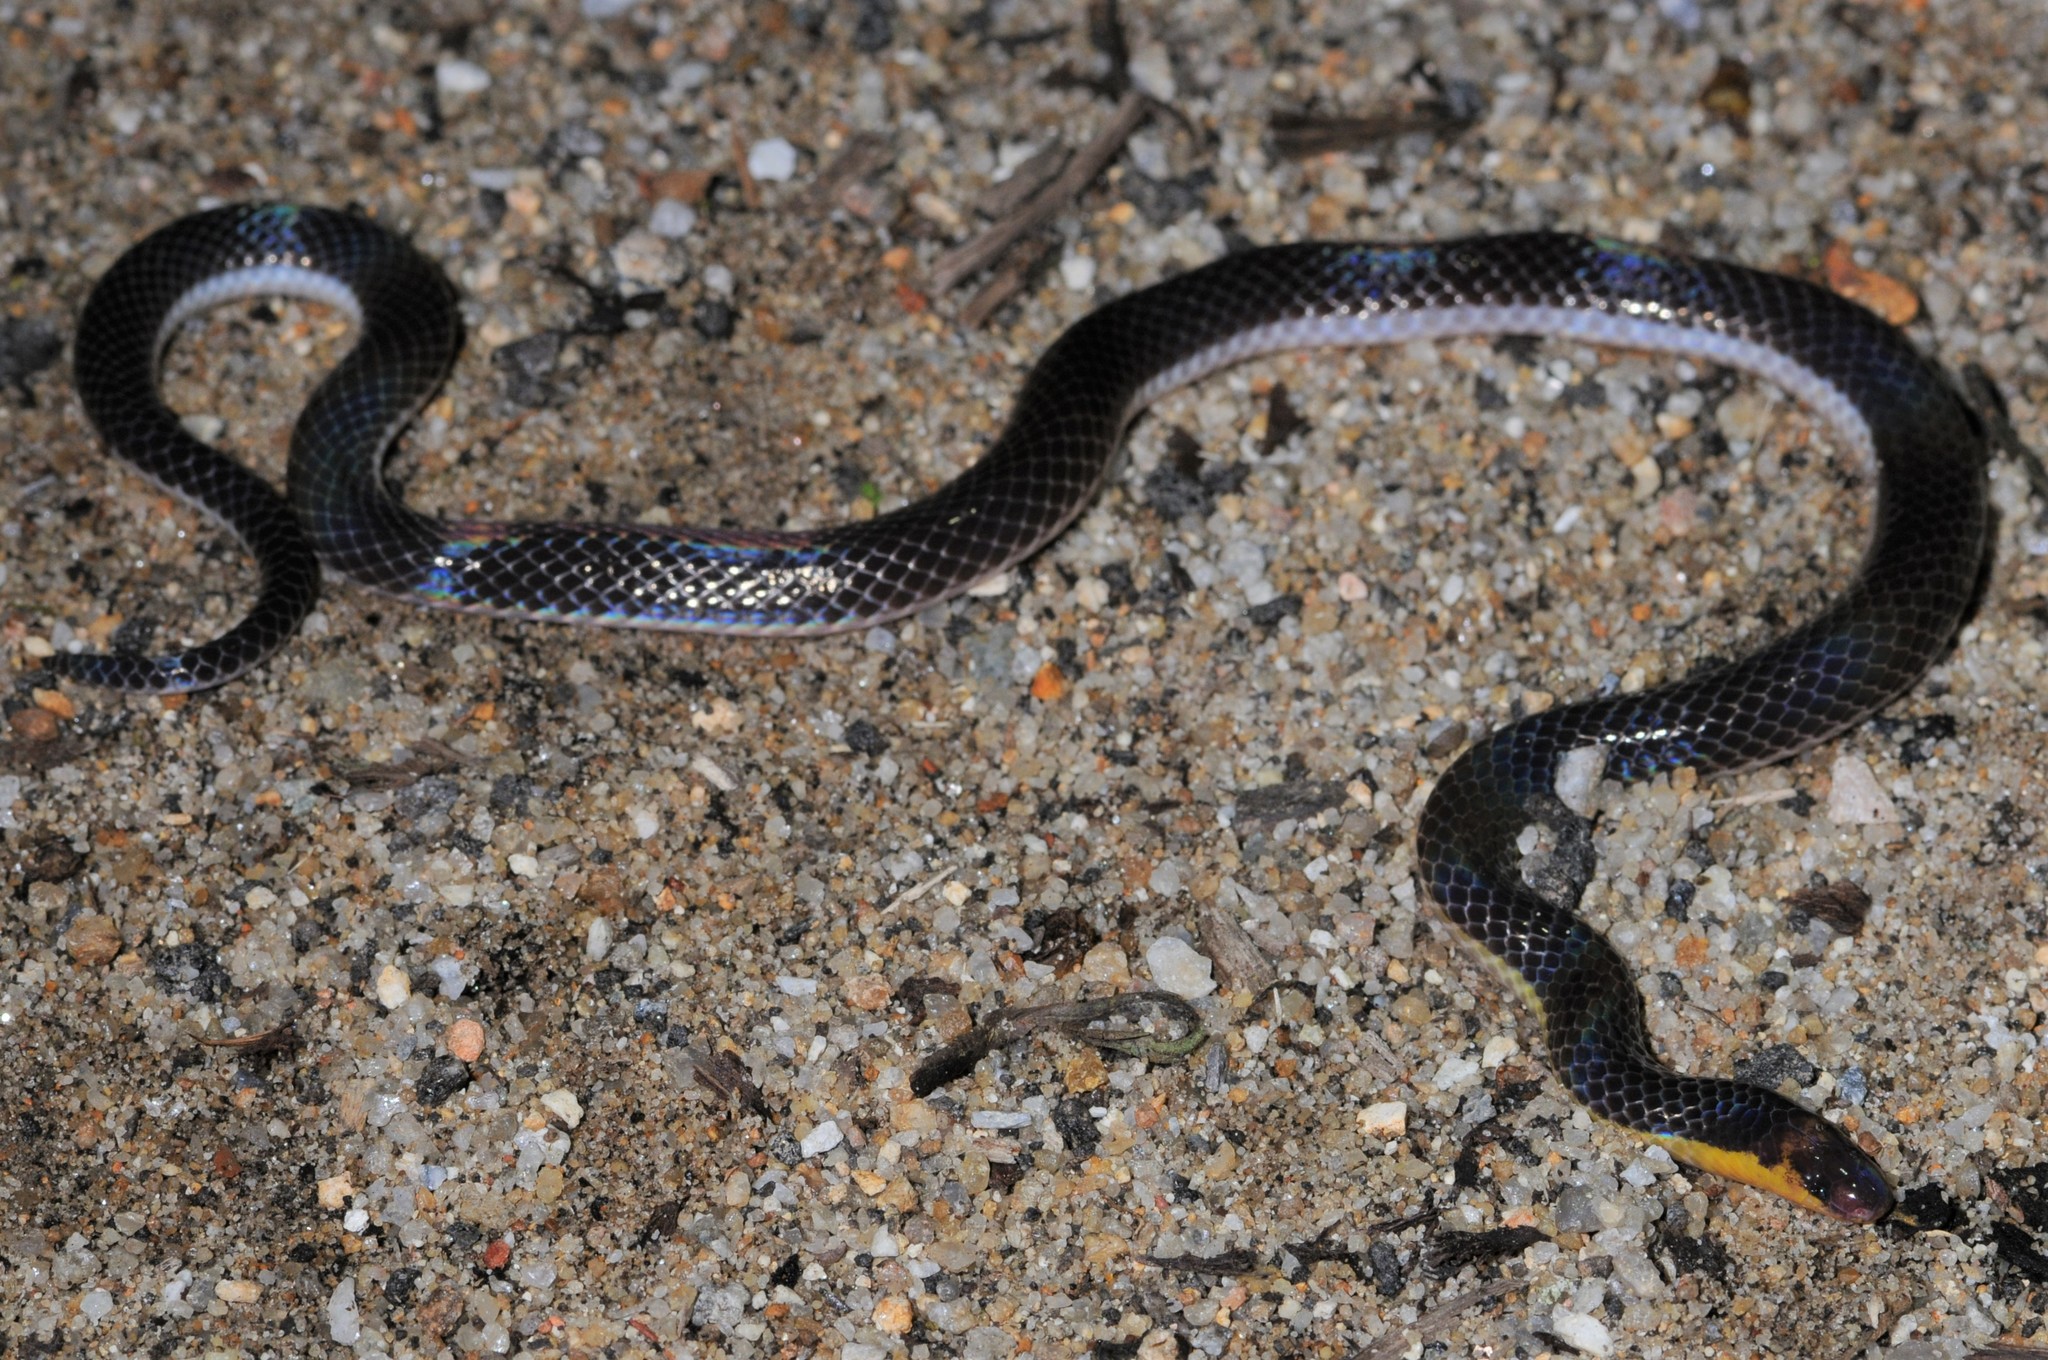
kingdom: Animalia
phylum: Chordata
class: Squamata
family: Colubridae
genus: Calamaria
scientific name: Calamaria schlegeli
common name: Red-headed reed snake
